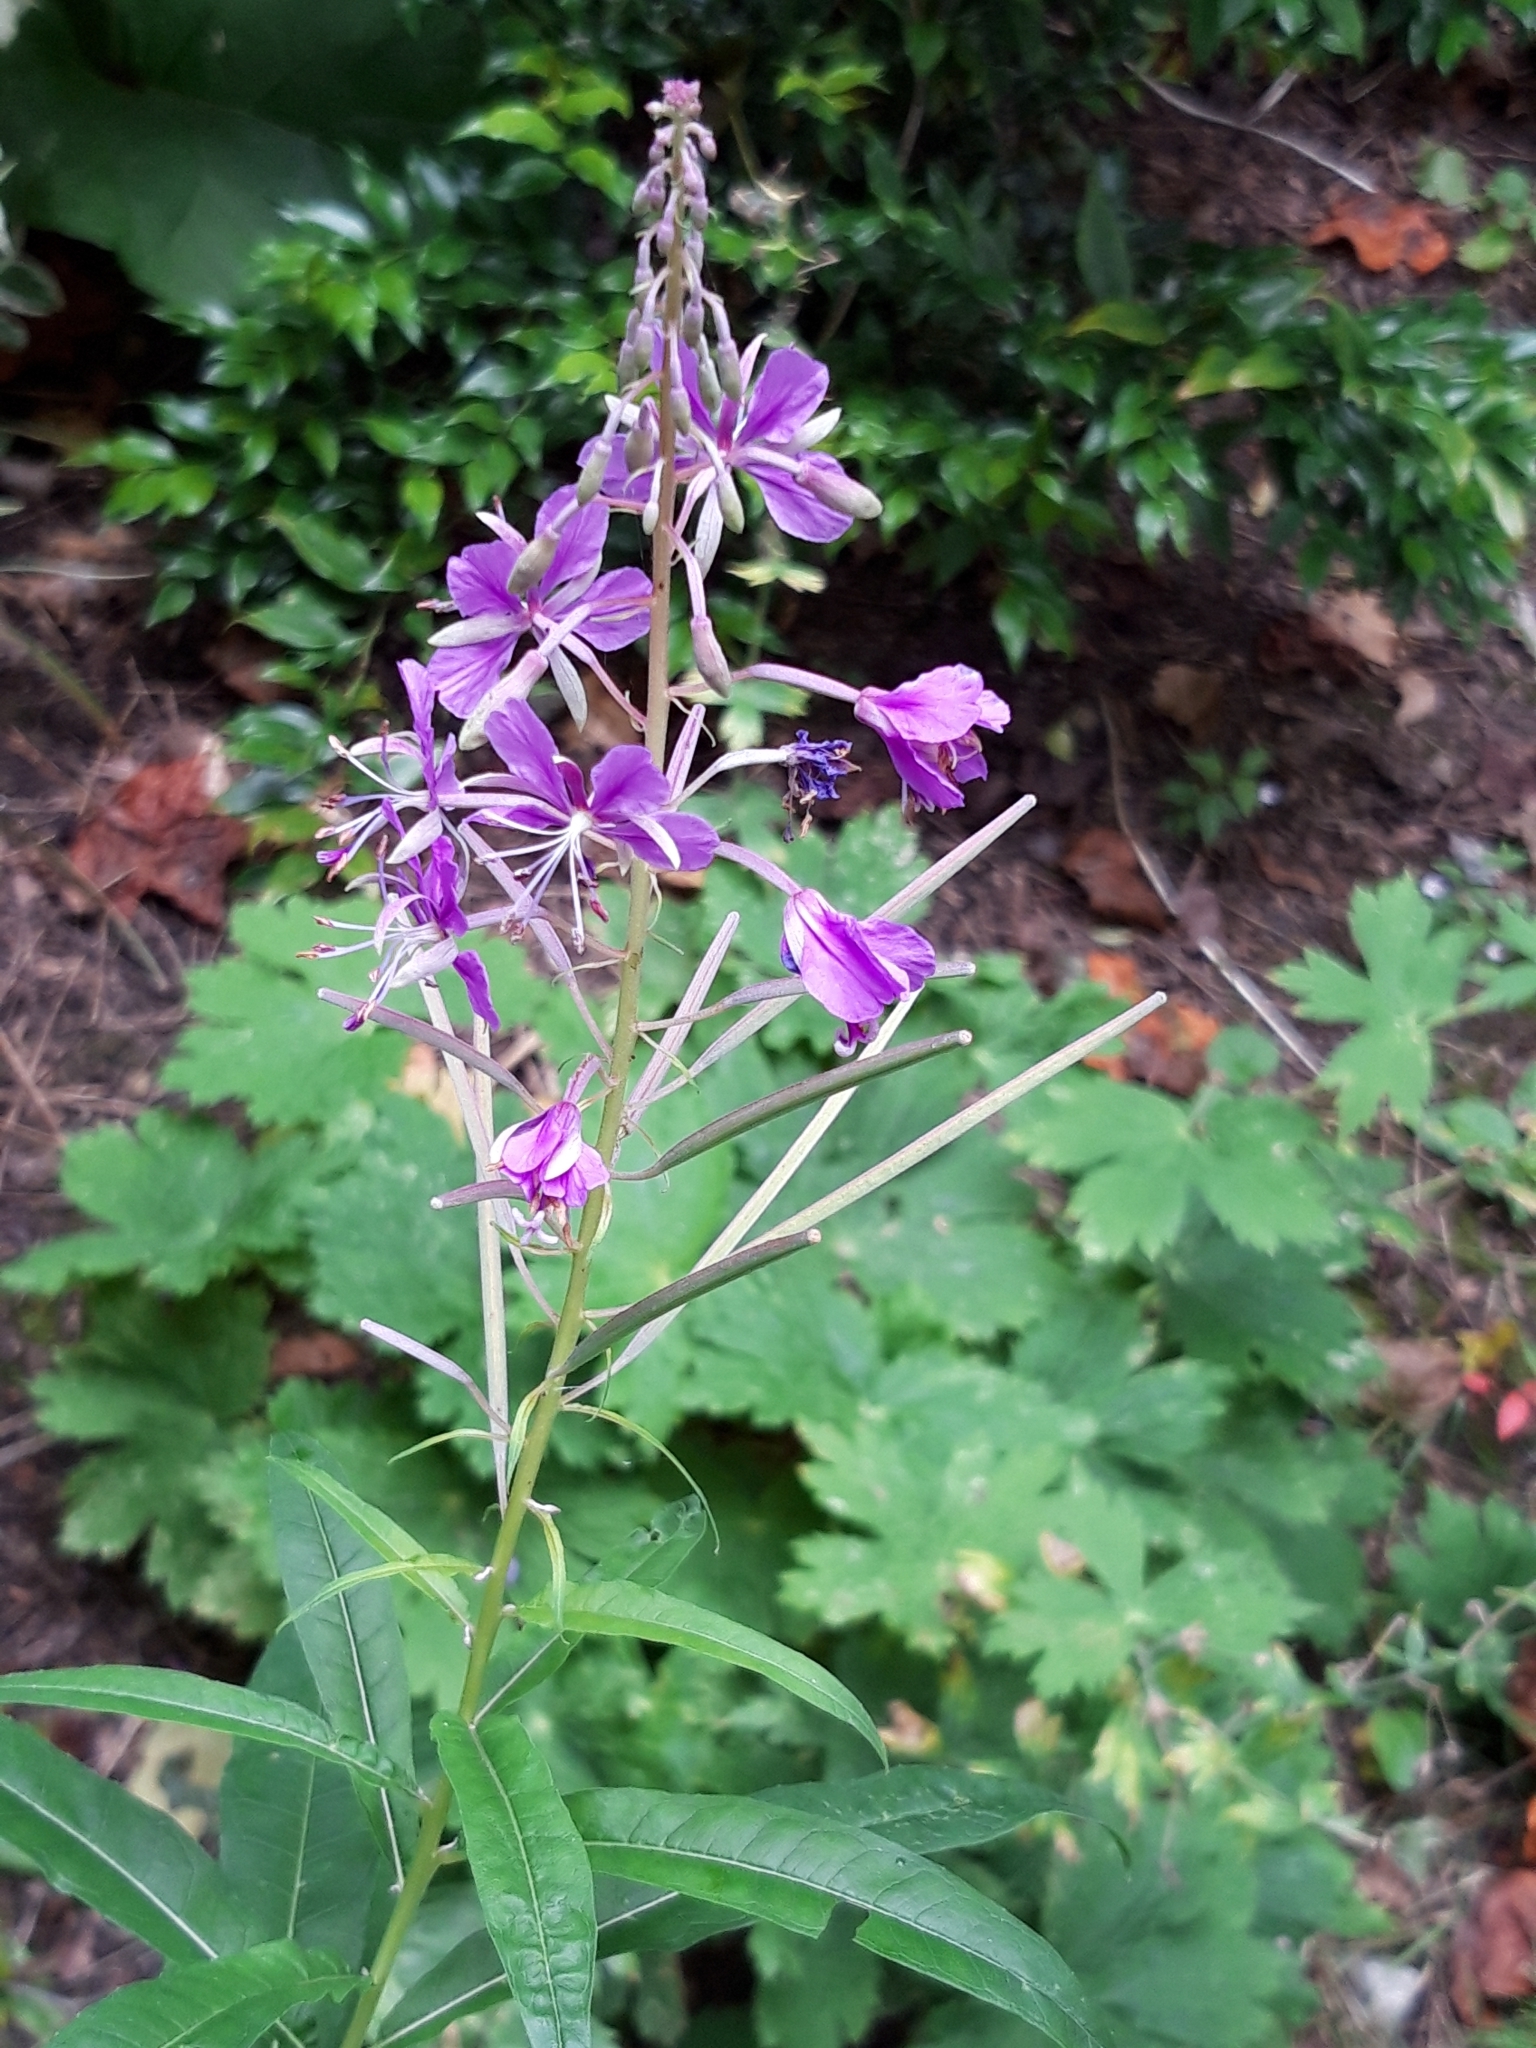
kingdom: Plantae
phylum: Tracheophyta
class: Magnoliopsida
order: Myrtales
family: Onagraceae
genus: Chamaenerion
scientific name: Chamaenerion angustifolium
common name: Fireweed
